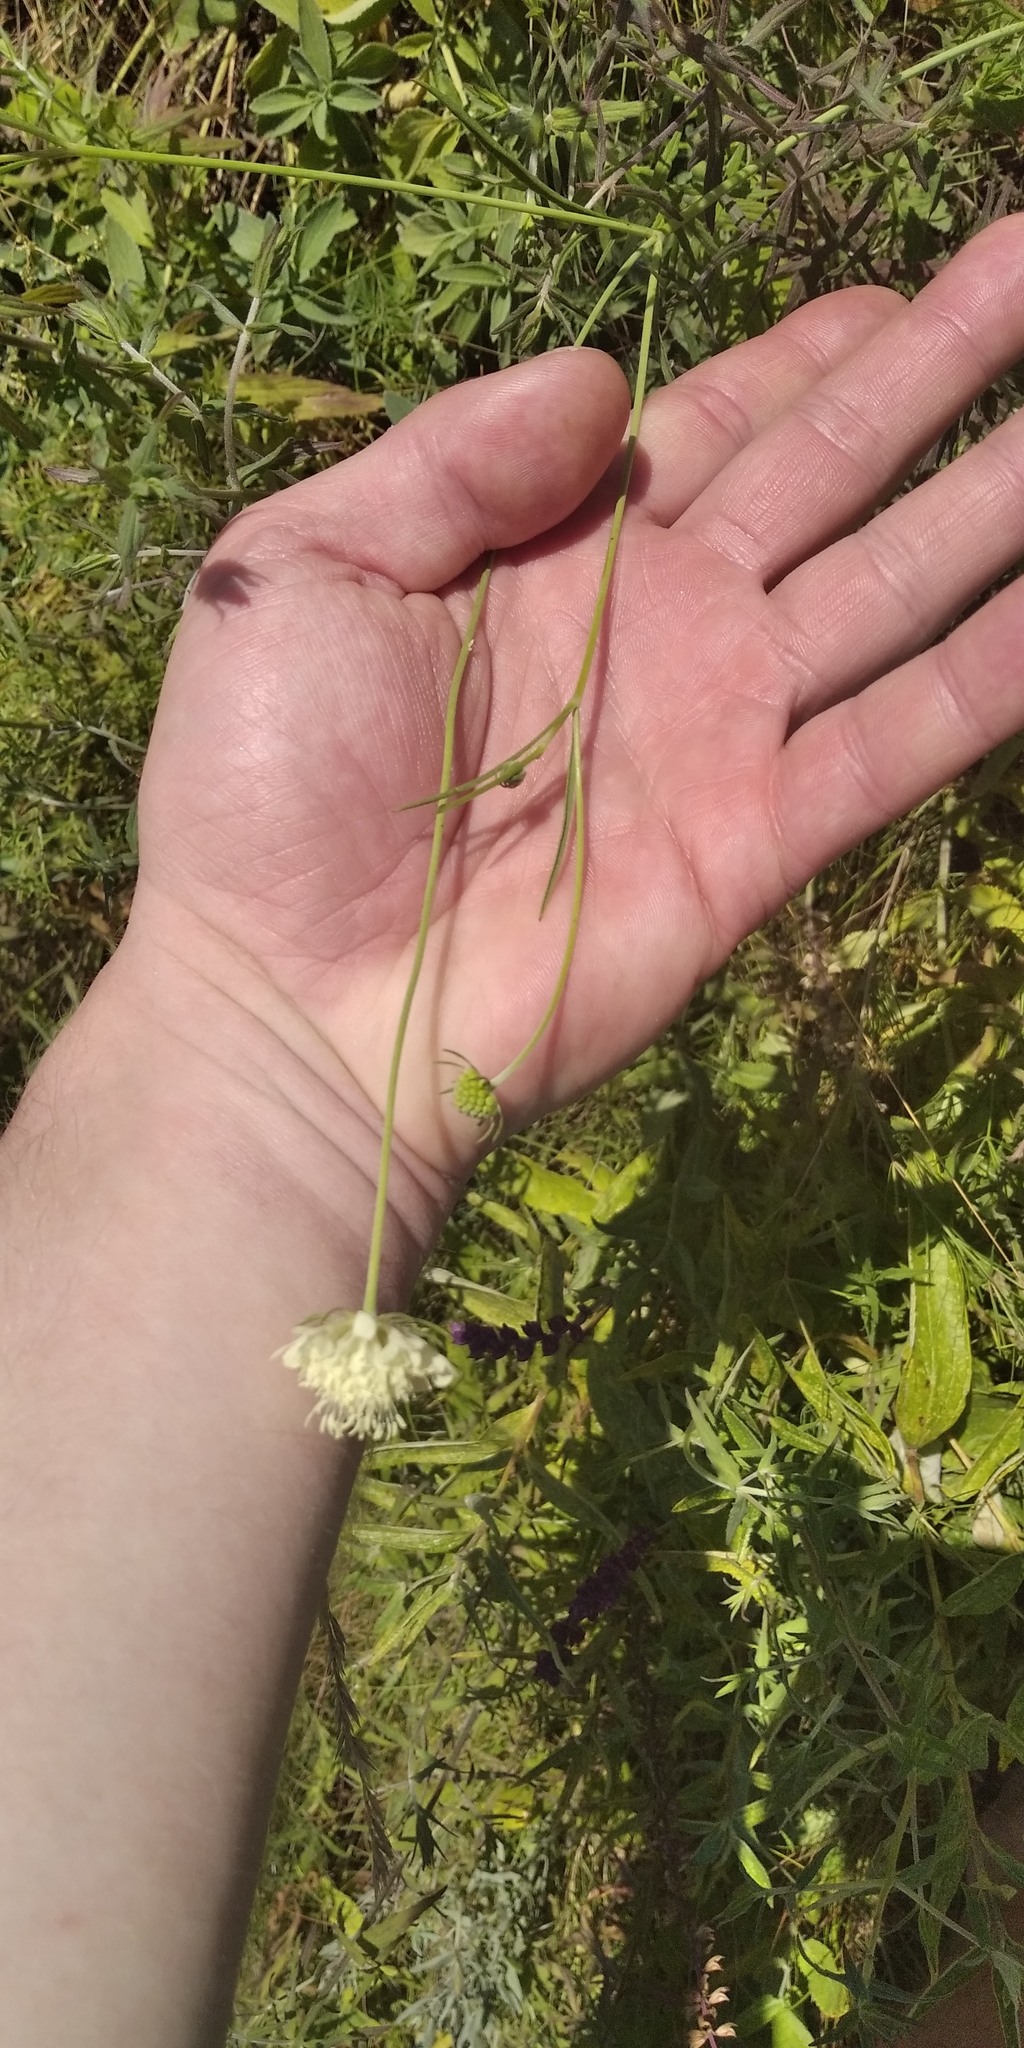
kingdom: Plantae
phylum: Tracheophyta
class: Magnoliopsida
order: Dipsacales
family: Caprifoliaceae
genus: Scabiosa
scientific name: Scabiosa ochroleuca
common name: Cream pincushions
